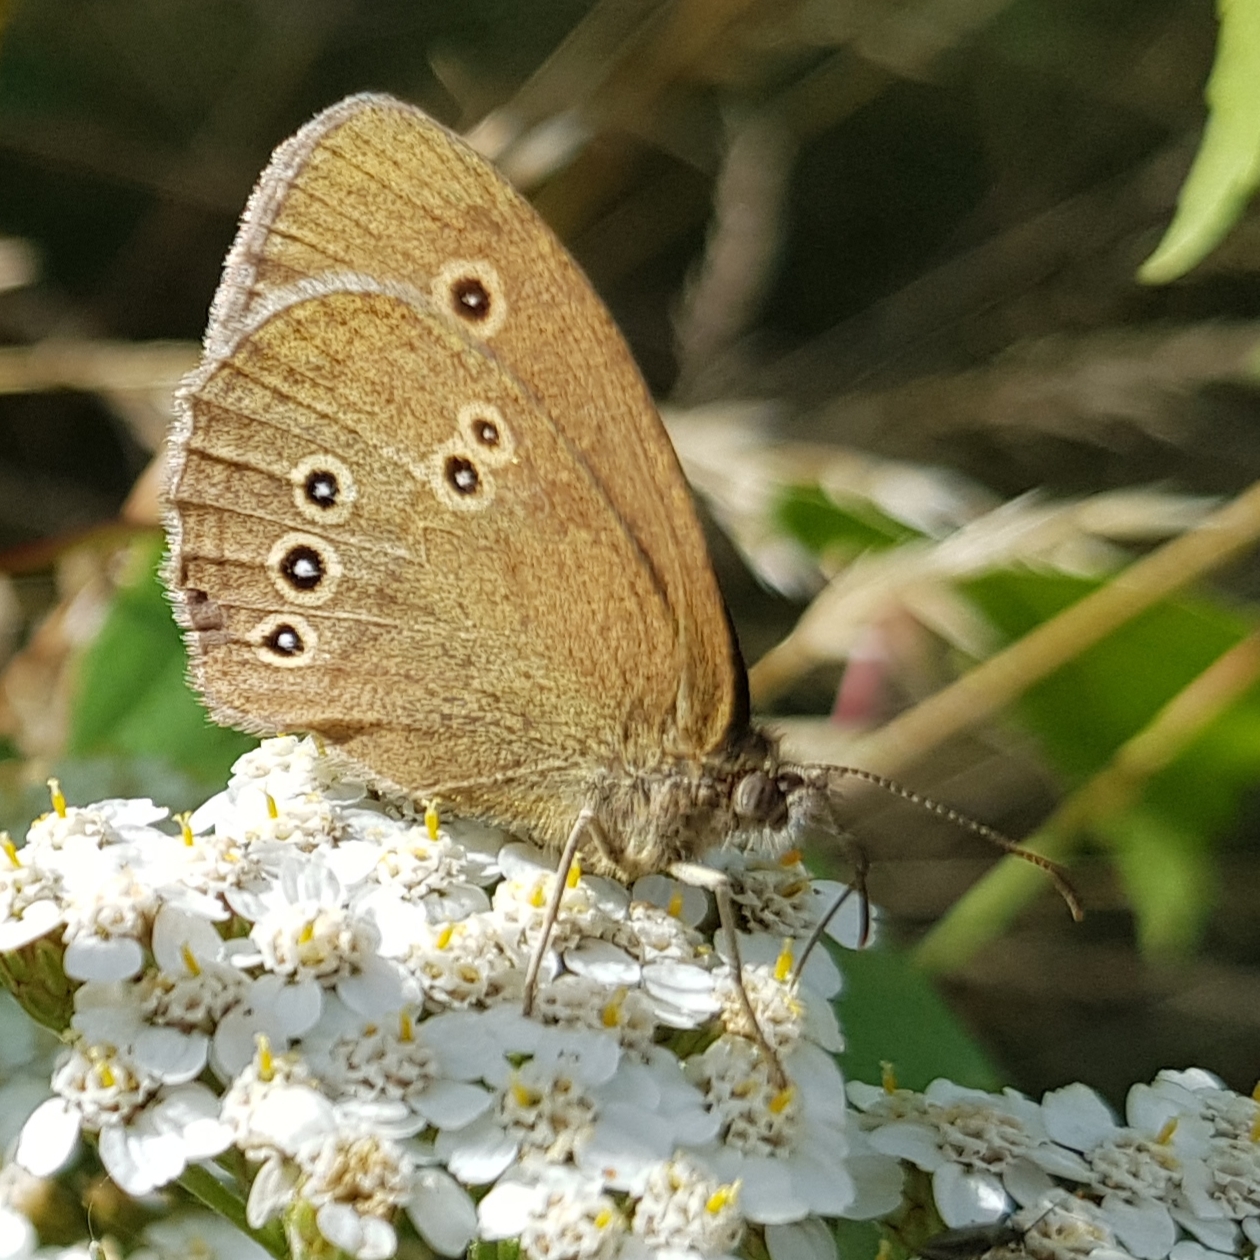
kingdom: Animalia
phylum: Arthropoda
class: Insecta
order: Lepidoptera
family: Nymphalidae
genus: Aphantopus
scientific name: Aphantopus hyperantus
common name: Ringlet
